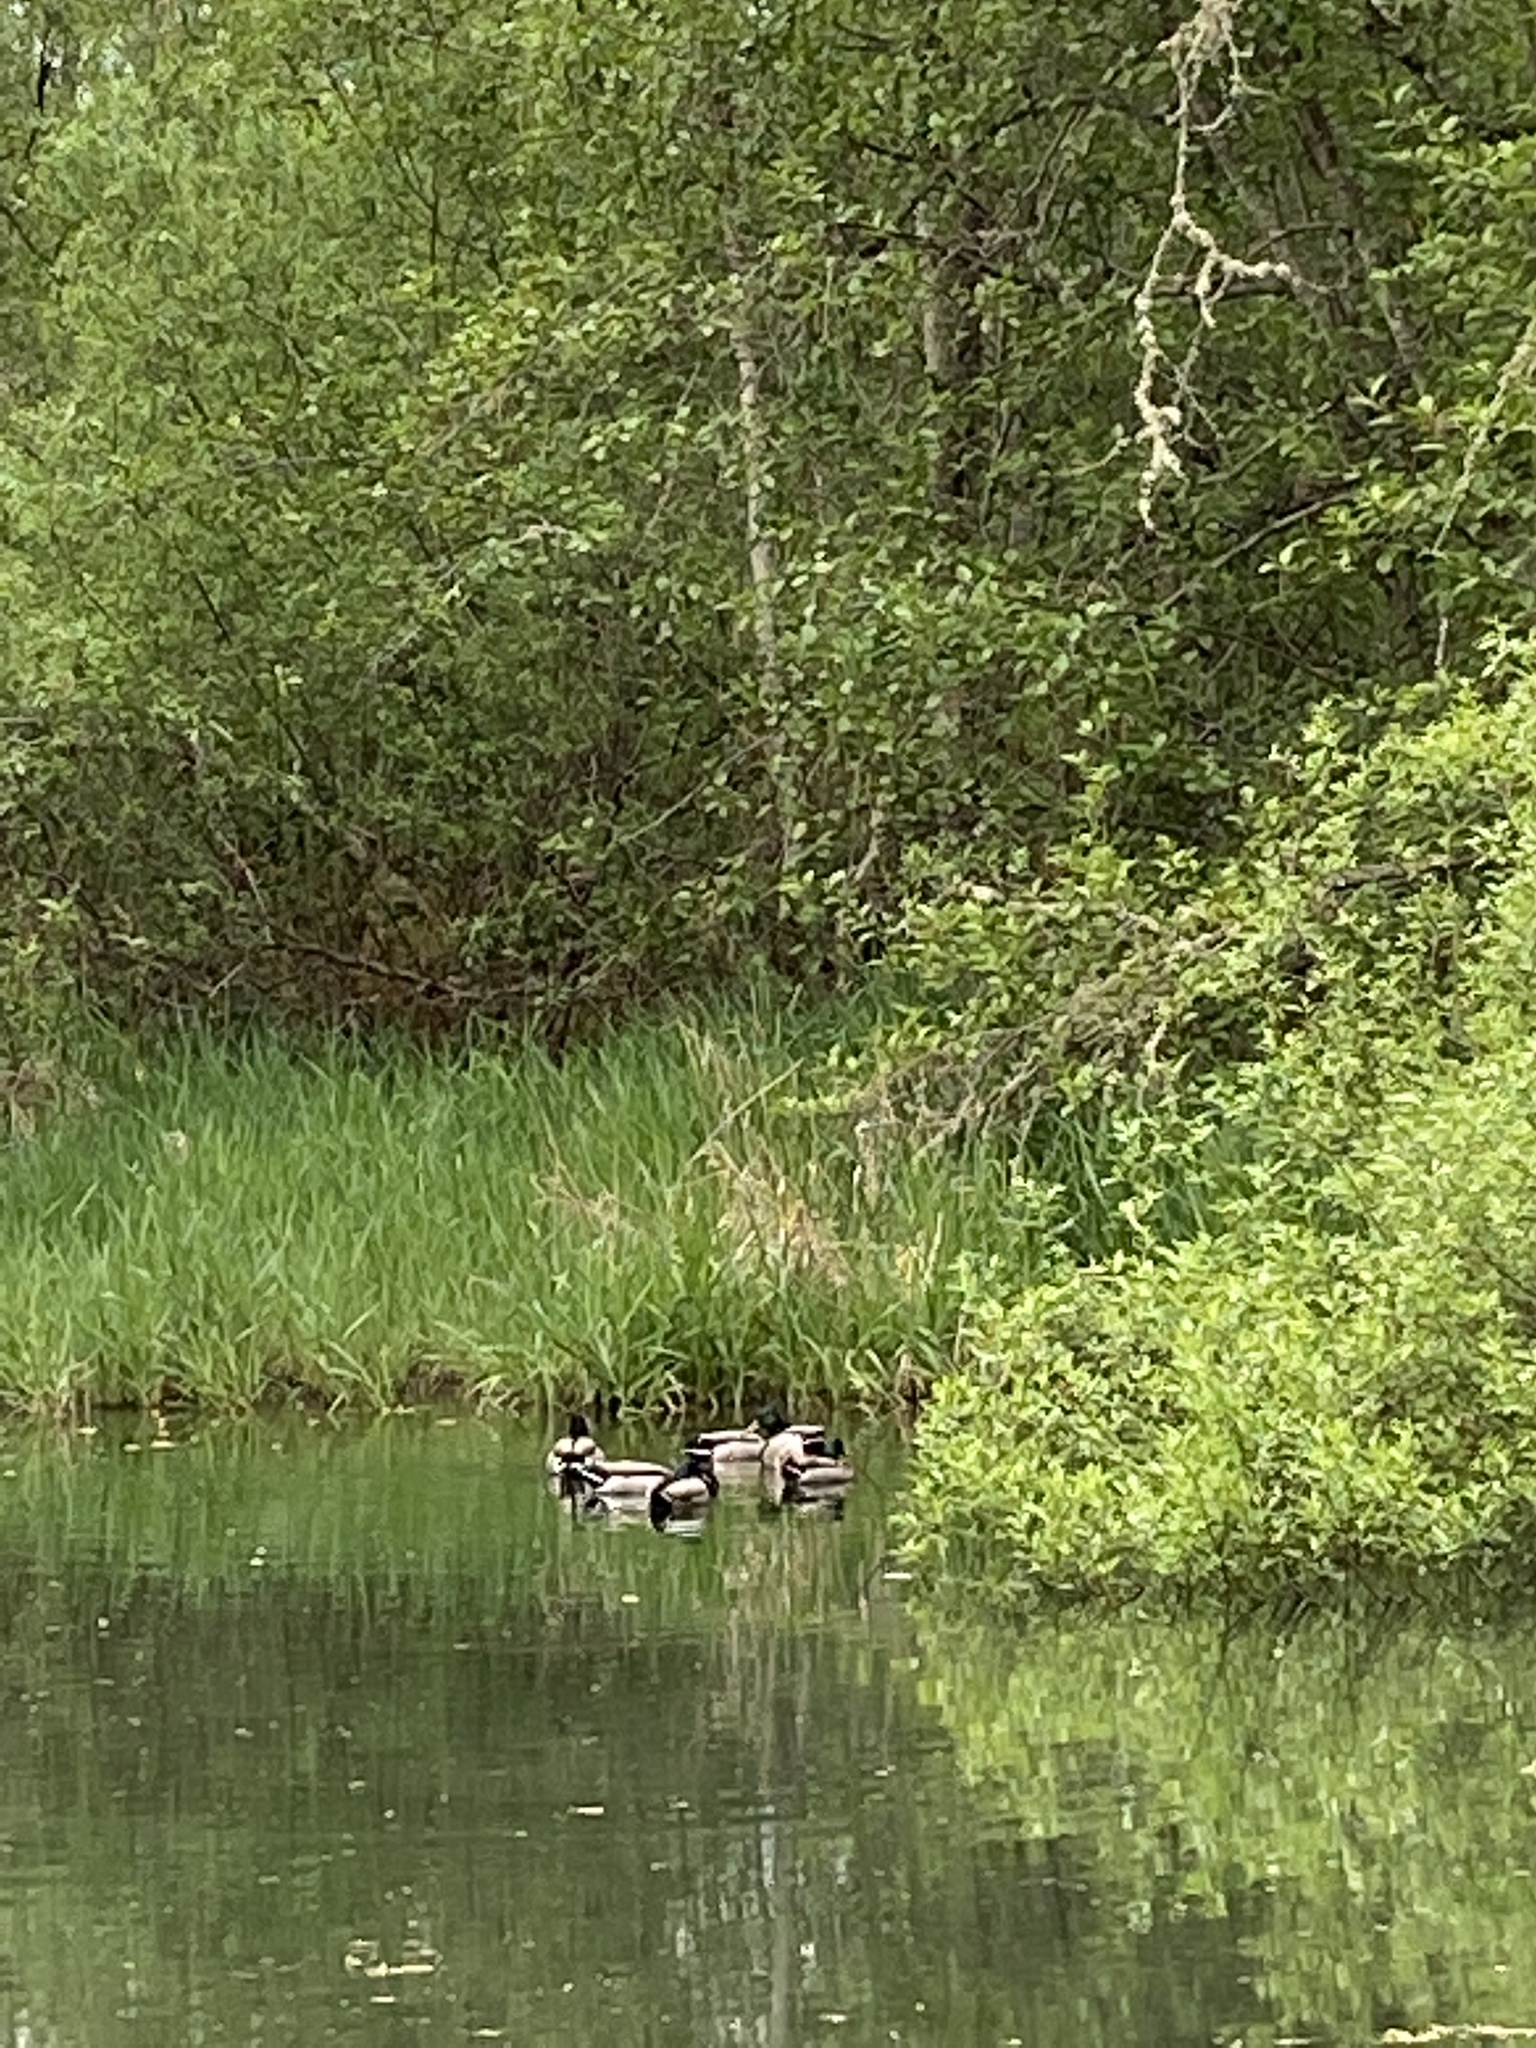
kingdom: Animalia
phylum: Chordata
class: Aves
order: Anseriformes
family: Anatidae
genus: Anas
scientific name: Anas platyrhynchos
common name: Mallard
